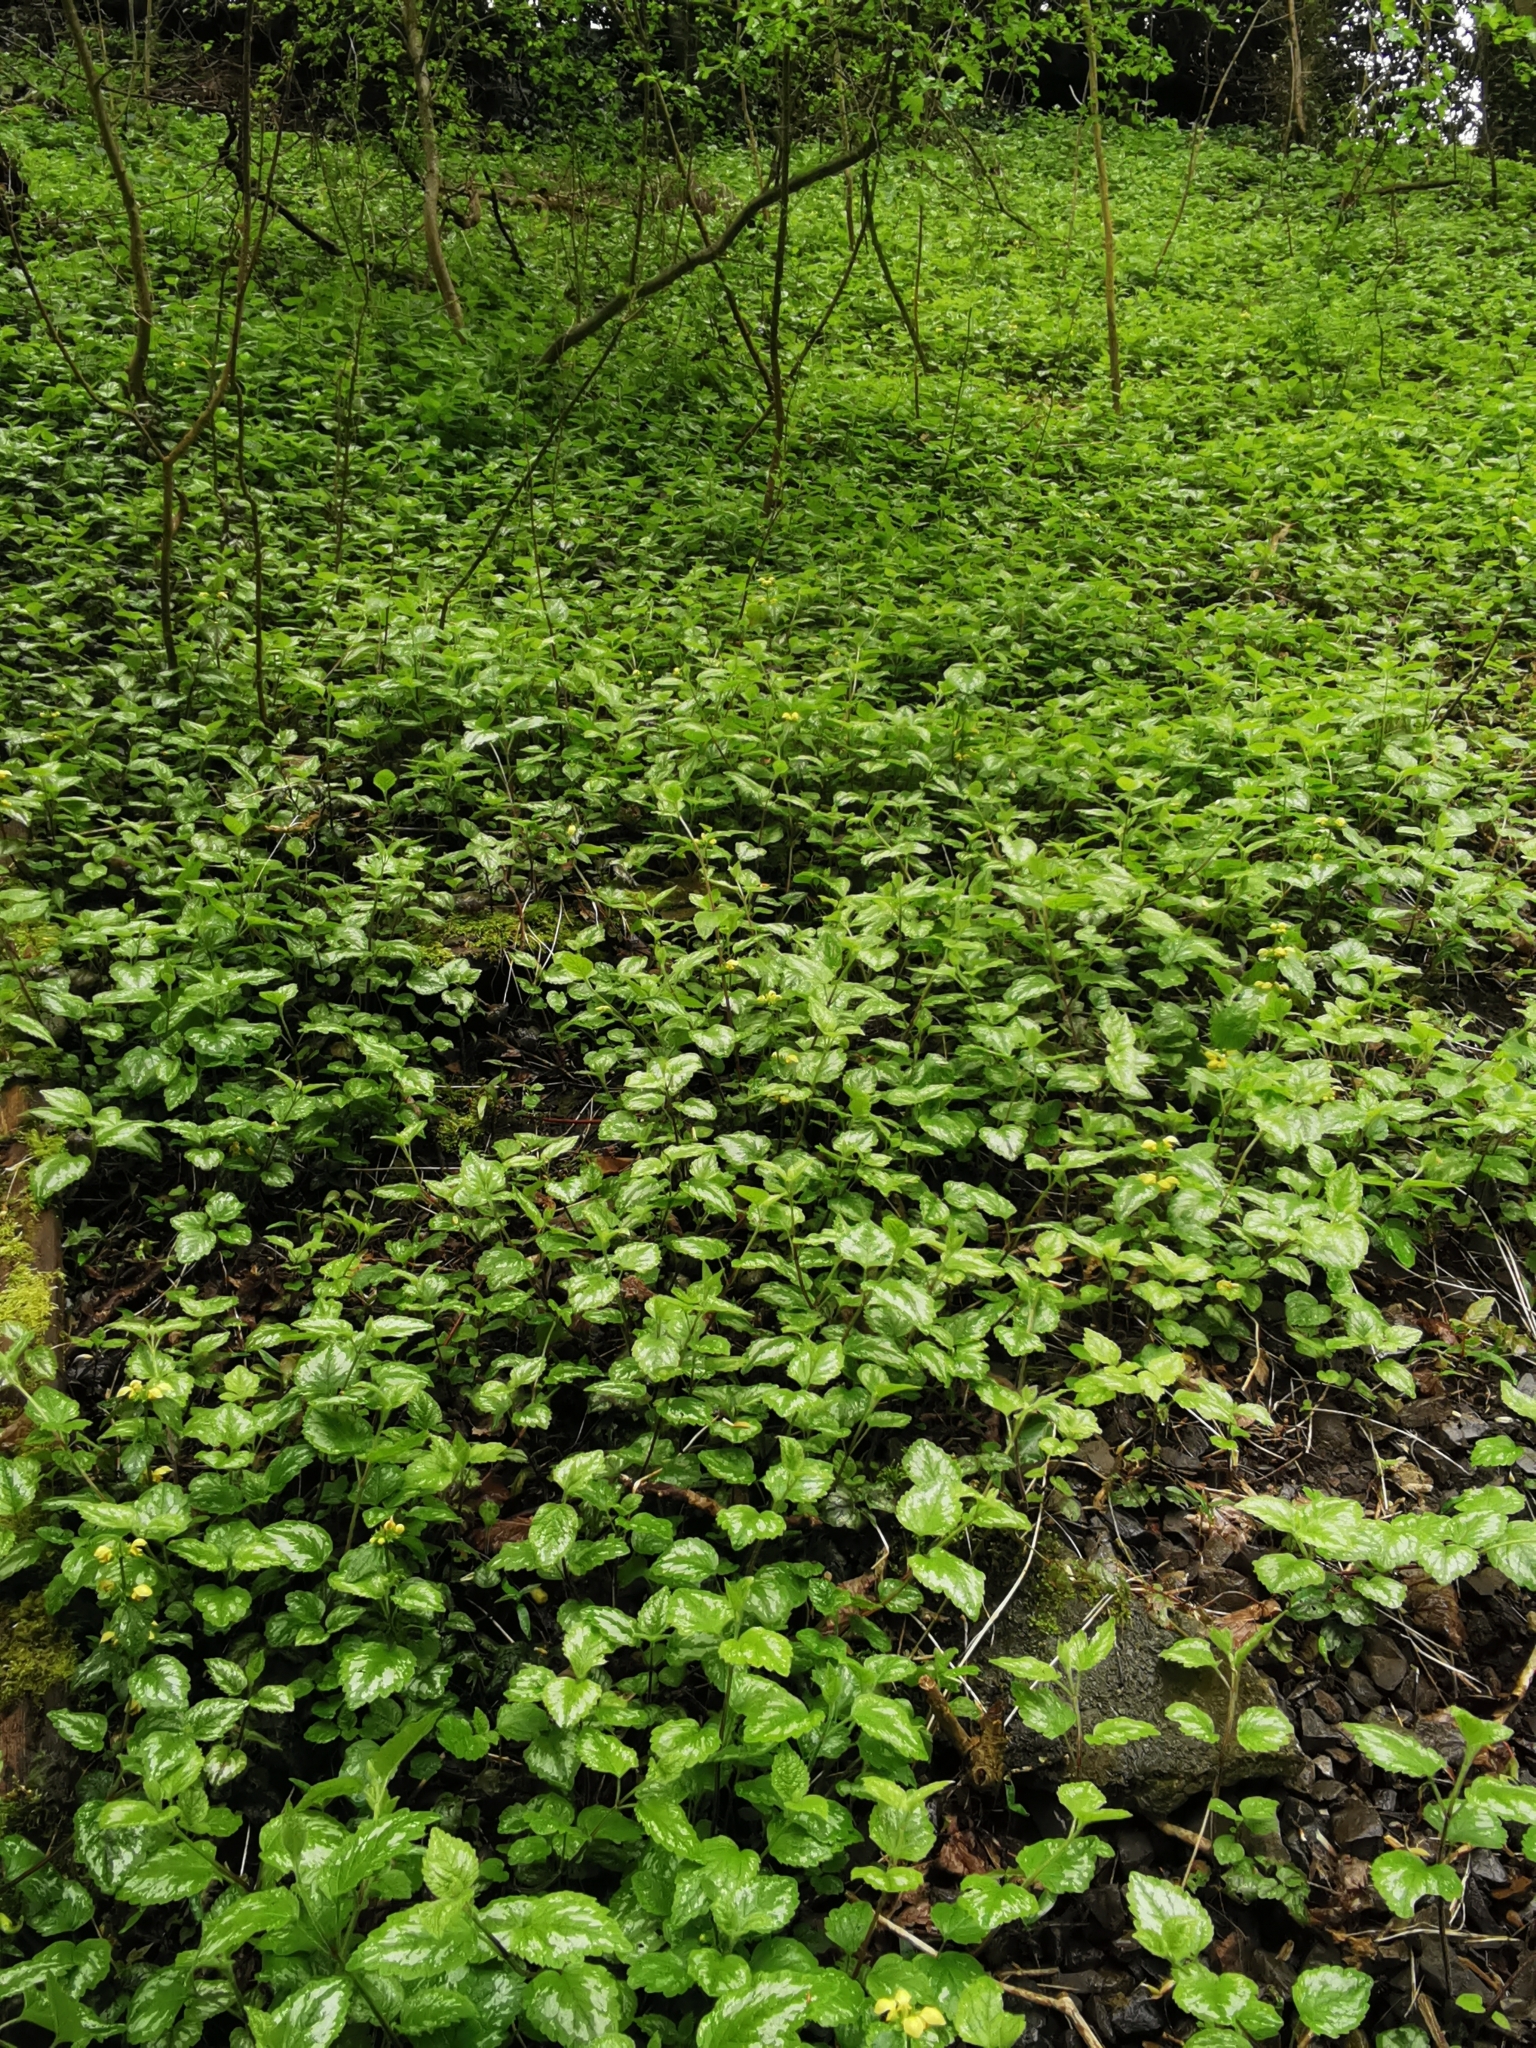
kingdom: Plantae
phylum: Tracheophyta
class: Magnoliopsida
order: Lamiales
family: Lamiaceae
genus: Lamium
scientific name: Lamium galeobdolon
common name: Yellow archangel
